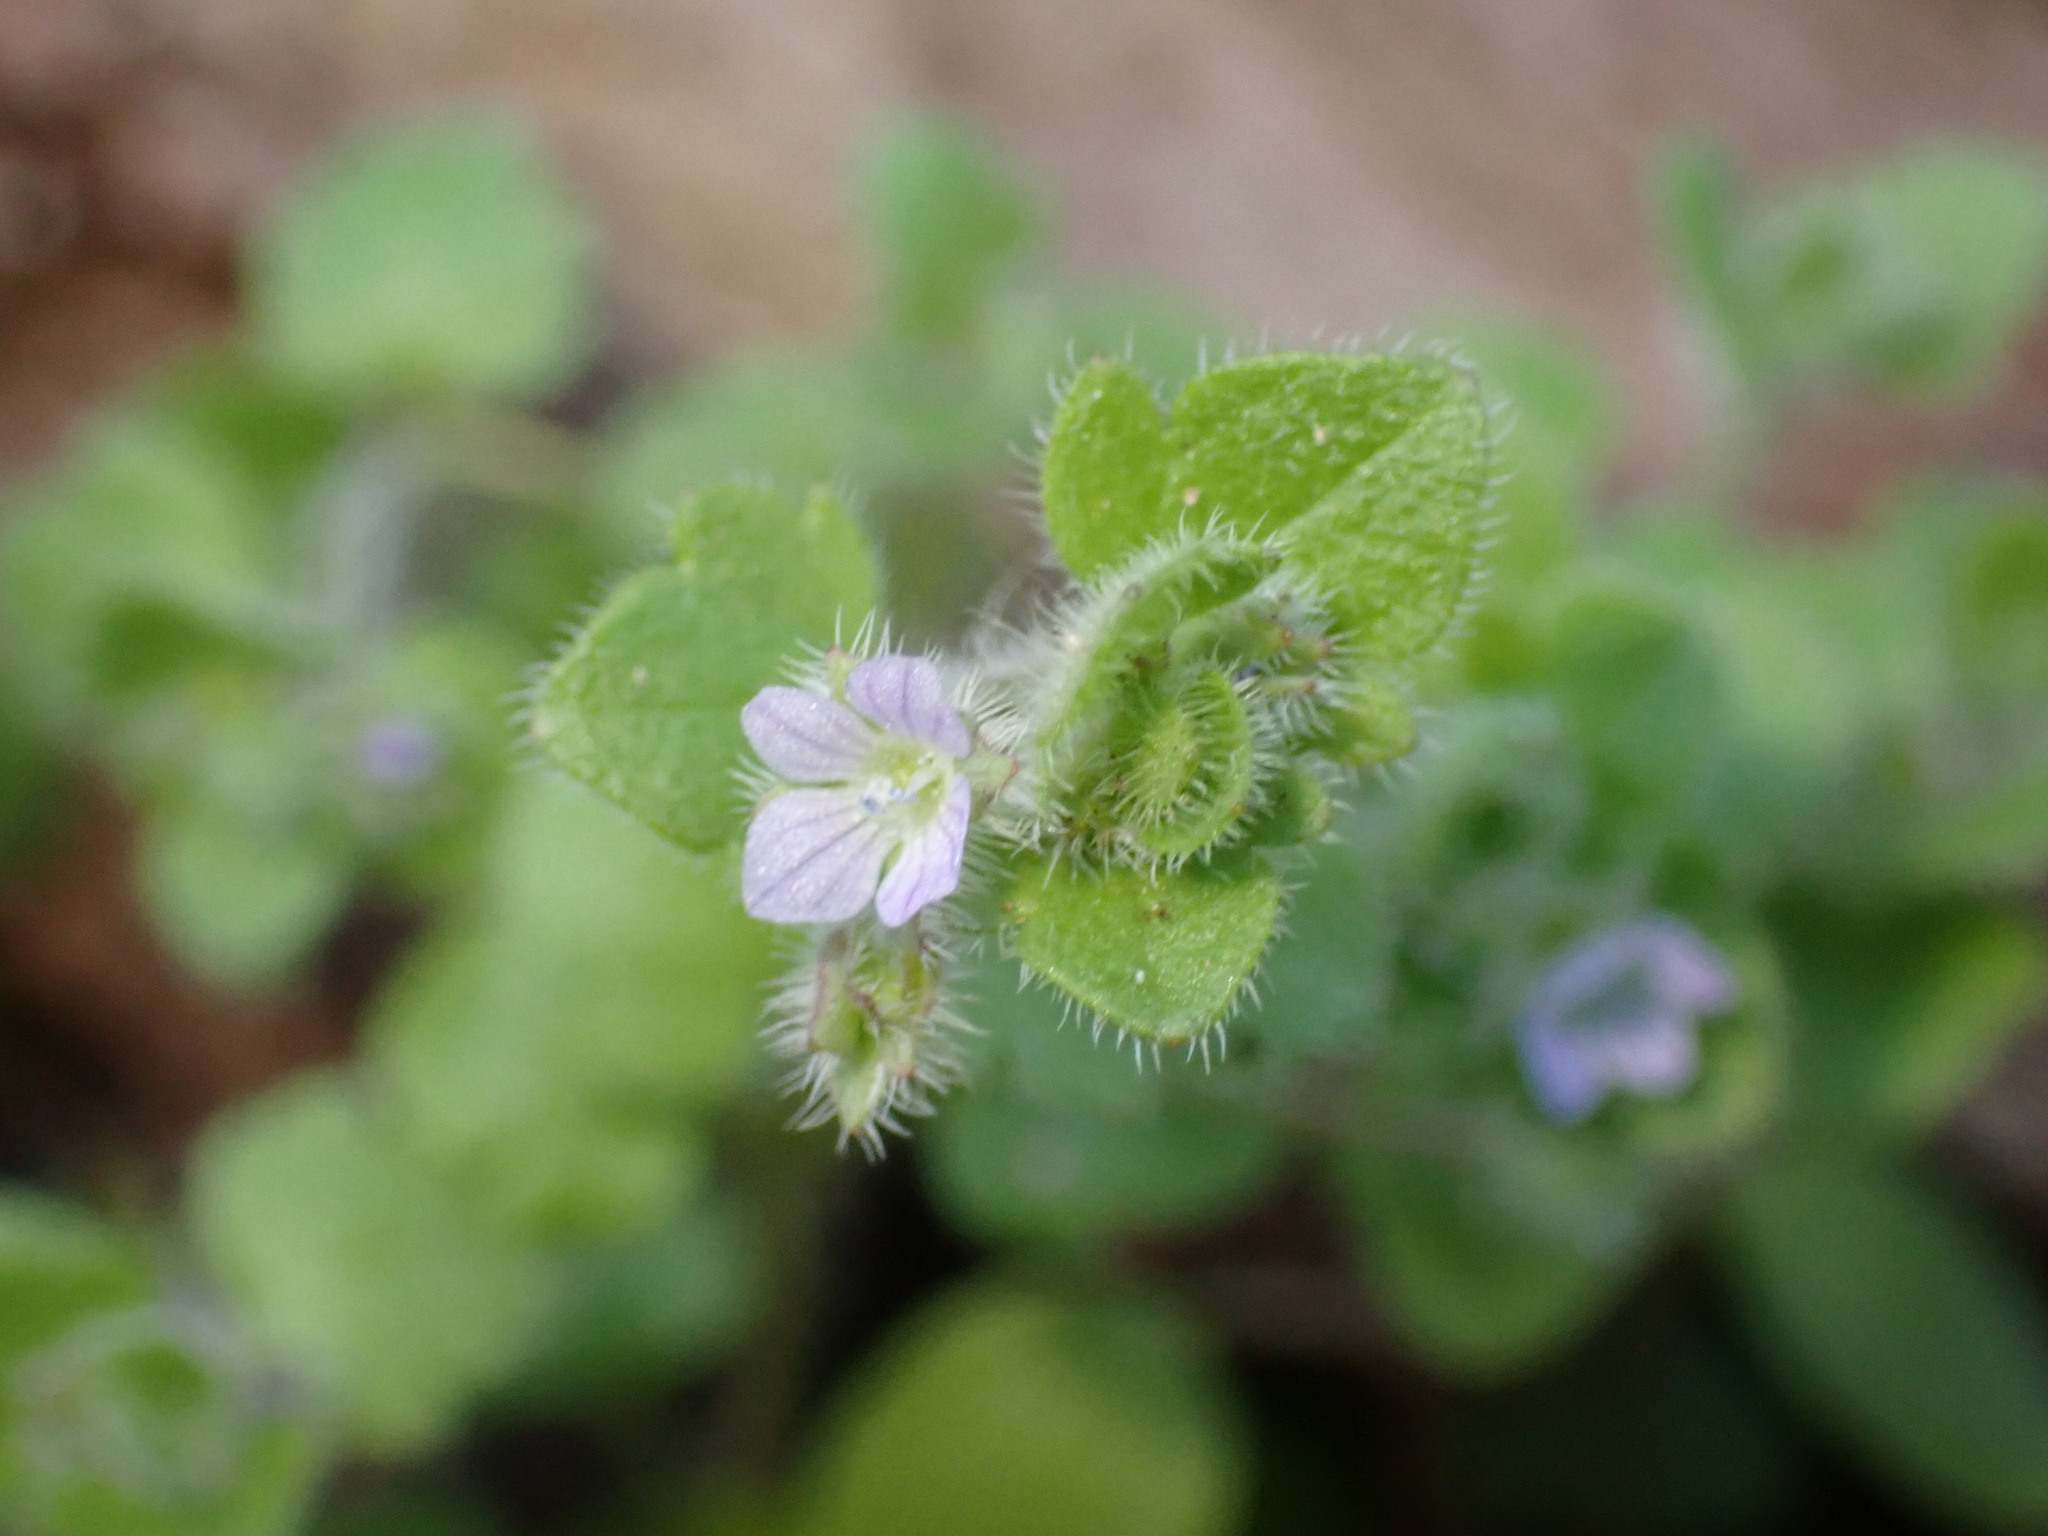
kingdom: Plantae
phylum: Tracheophyta
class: Magnoliopsida
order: Lamiales
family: Plantaginaceae
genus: Veronica
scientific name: Veronica sublobata
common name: False ivy-leaved speedwell
